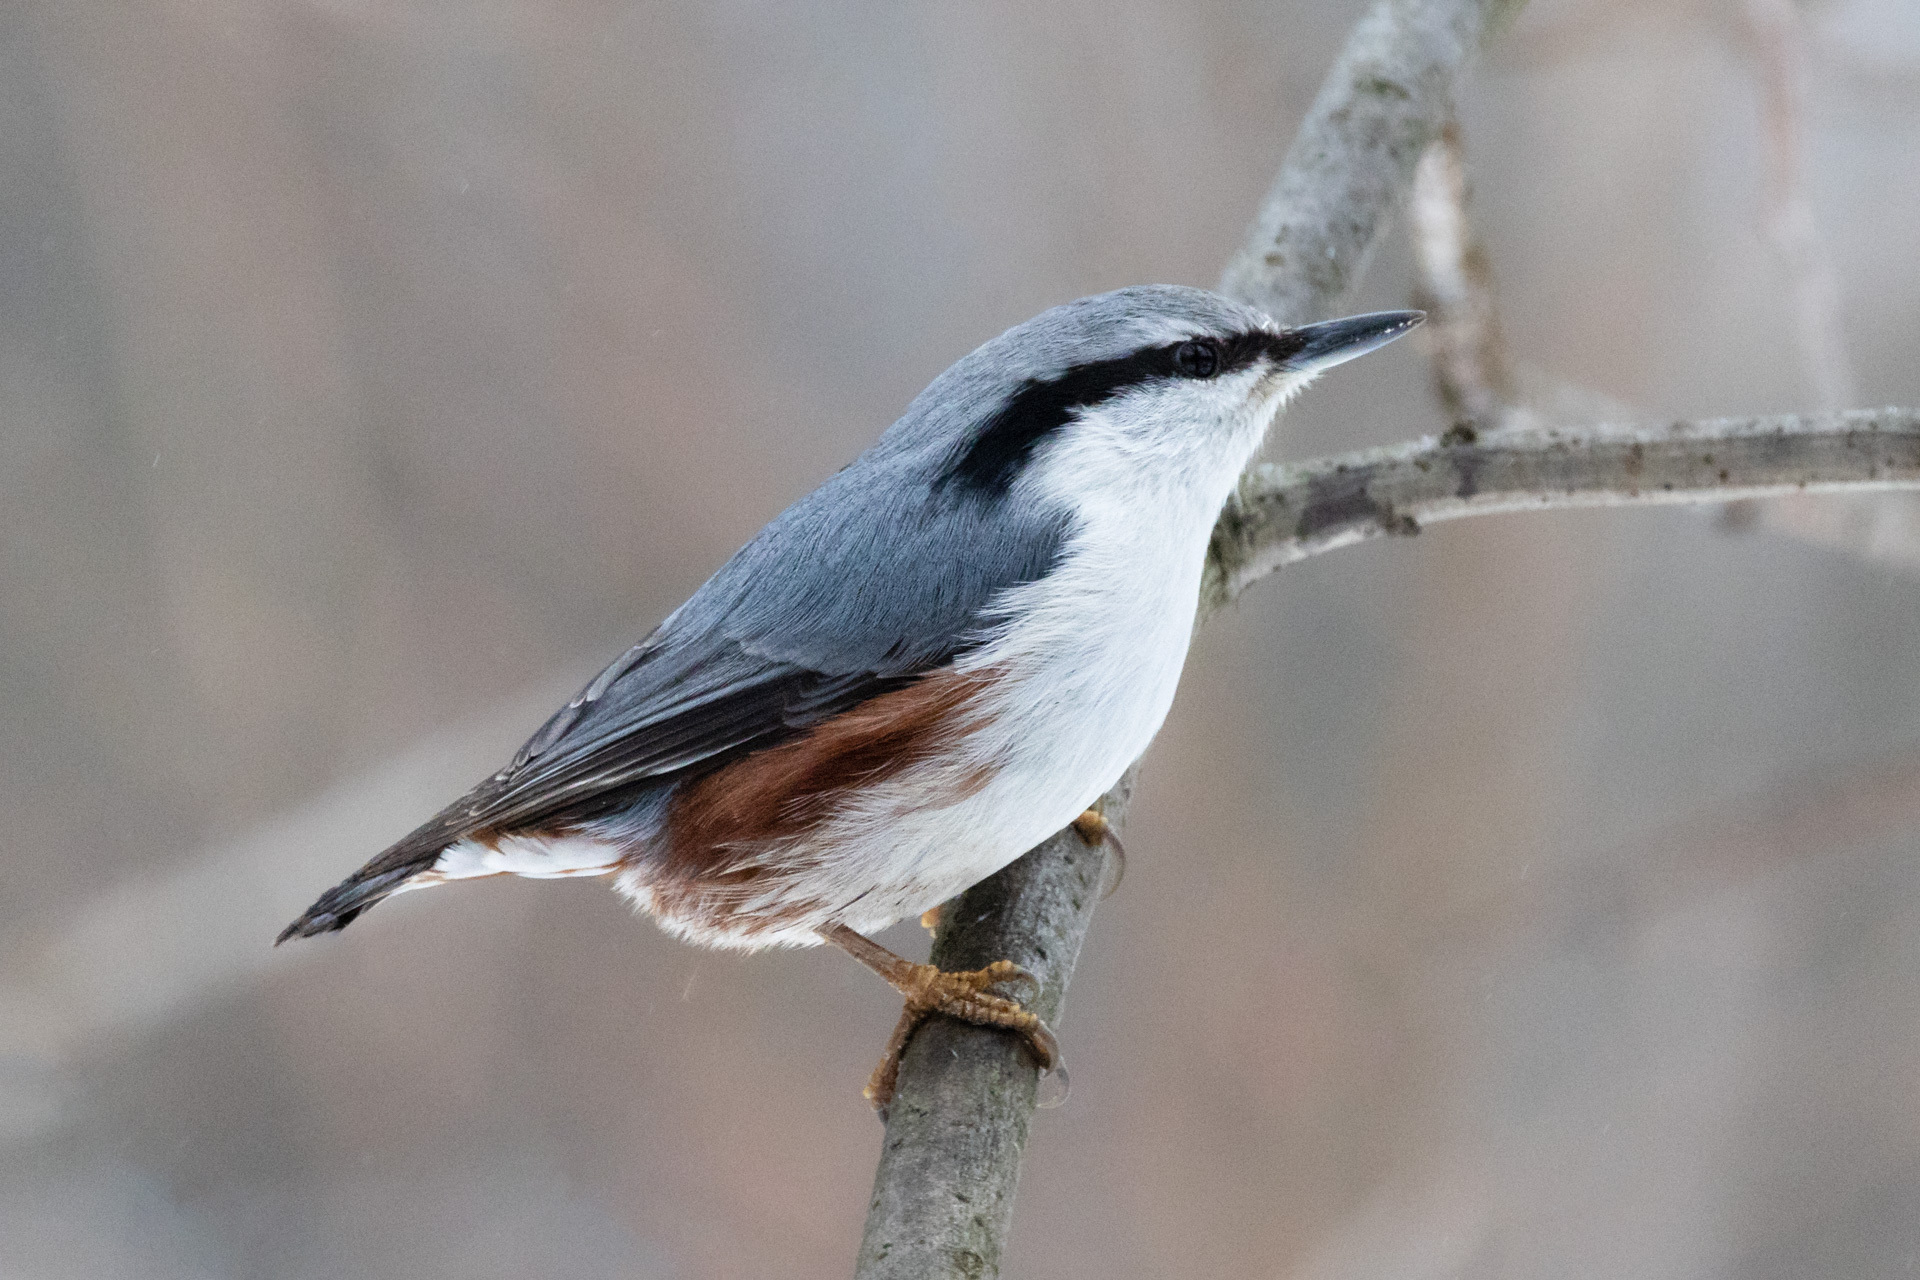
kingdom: Animalia
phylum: Chordata
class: Aves
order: Passeriformes
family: Sittidae
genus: Sitta
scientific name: Sitta europaea
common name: Eurasian nuthatch
